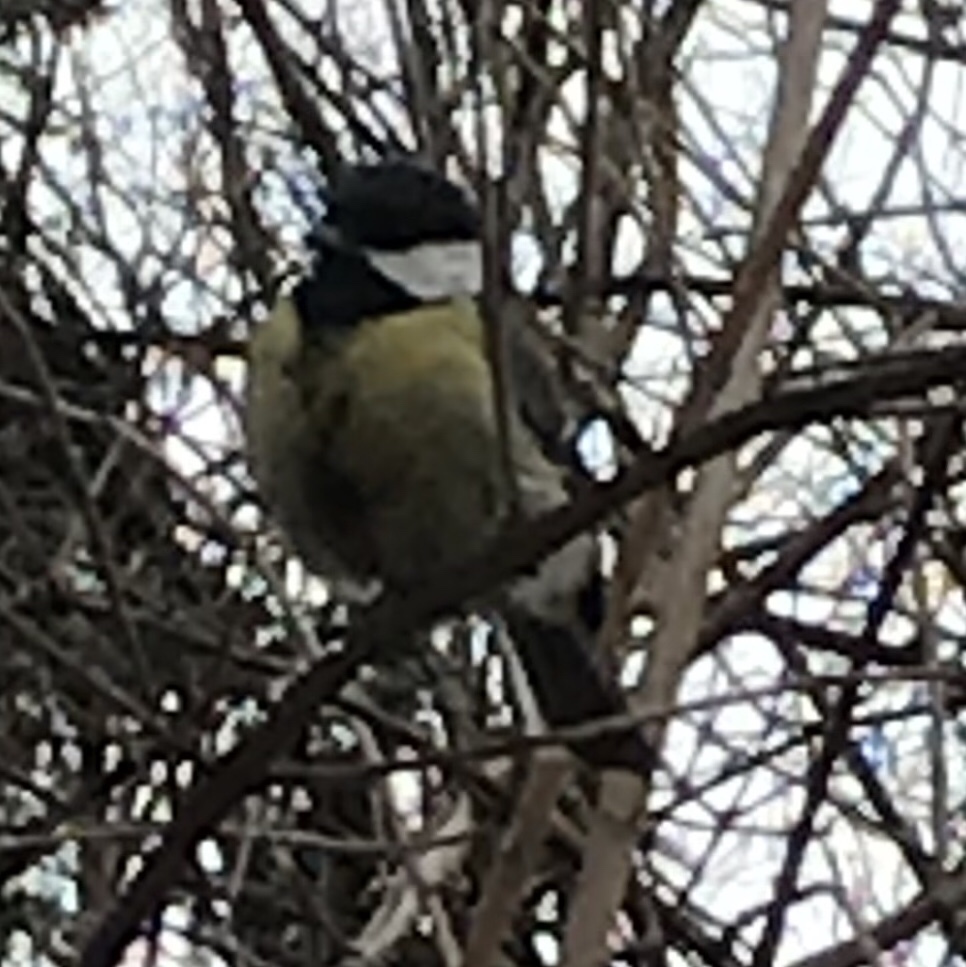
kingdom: Animalia
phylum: Chordata
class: Aves
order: Passeriformes
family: Paridae
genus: Parus
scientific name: Parus major
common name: Great tit
